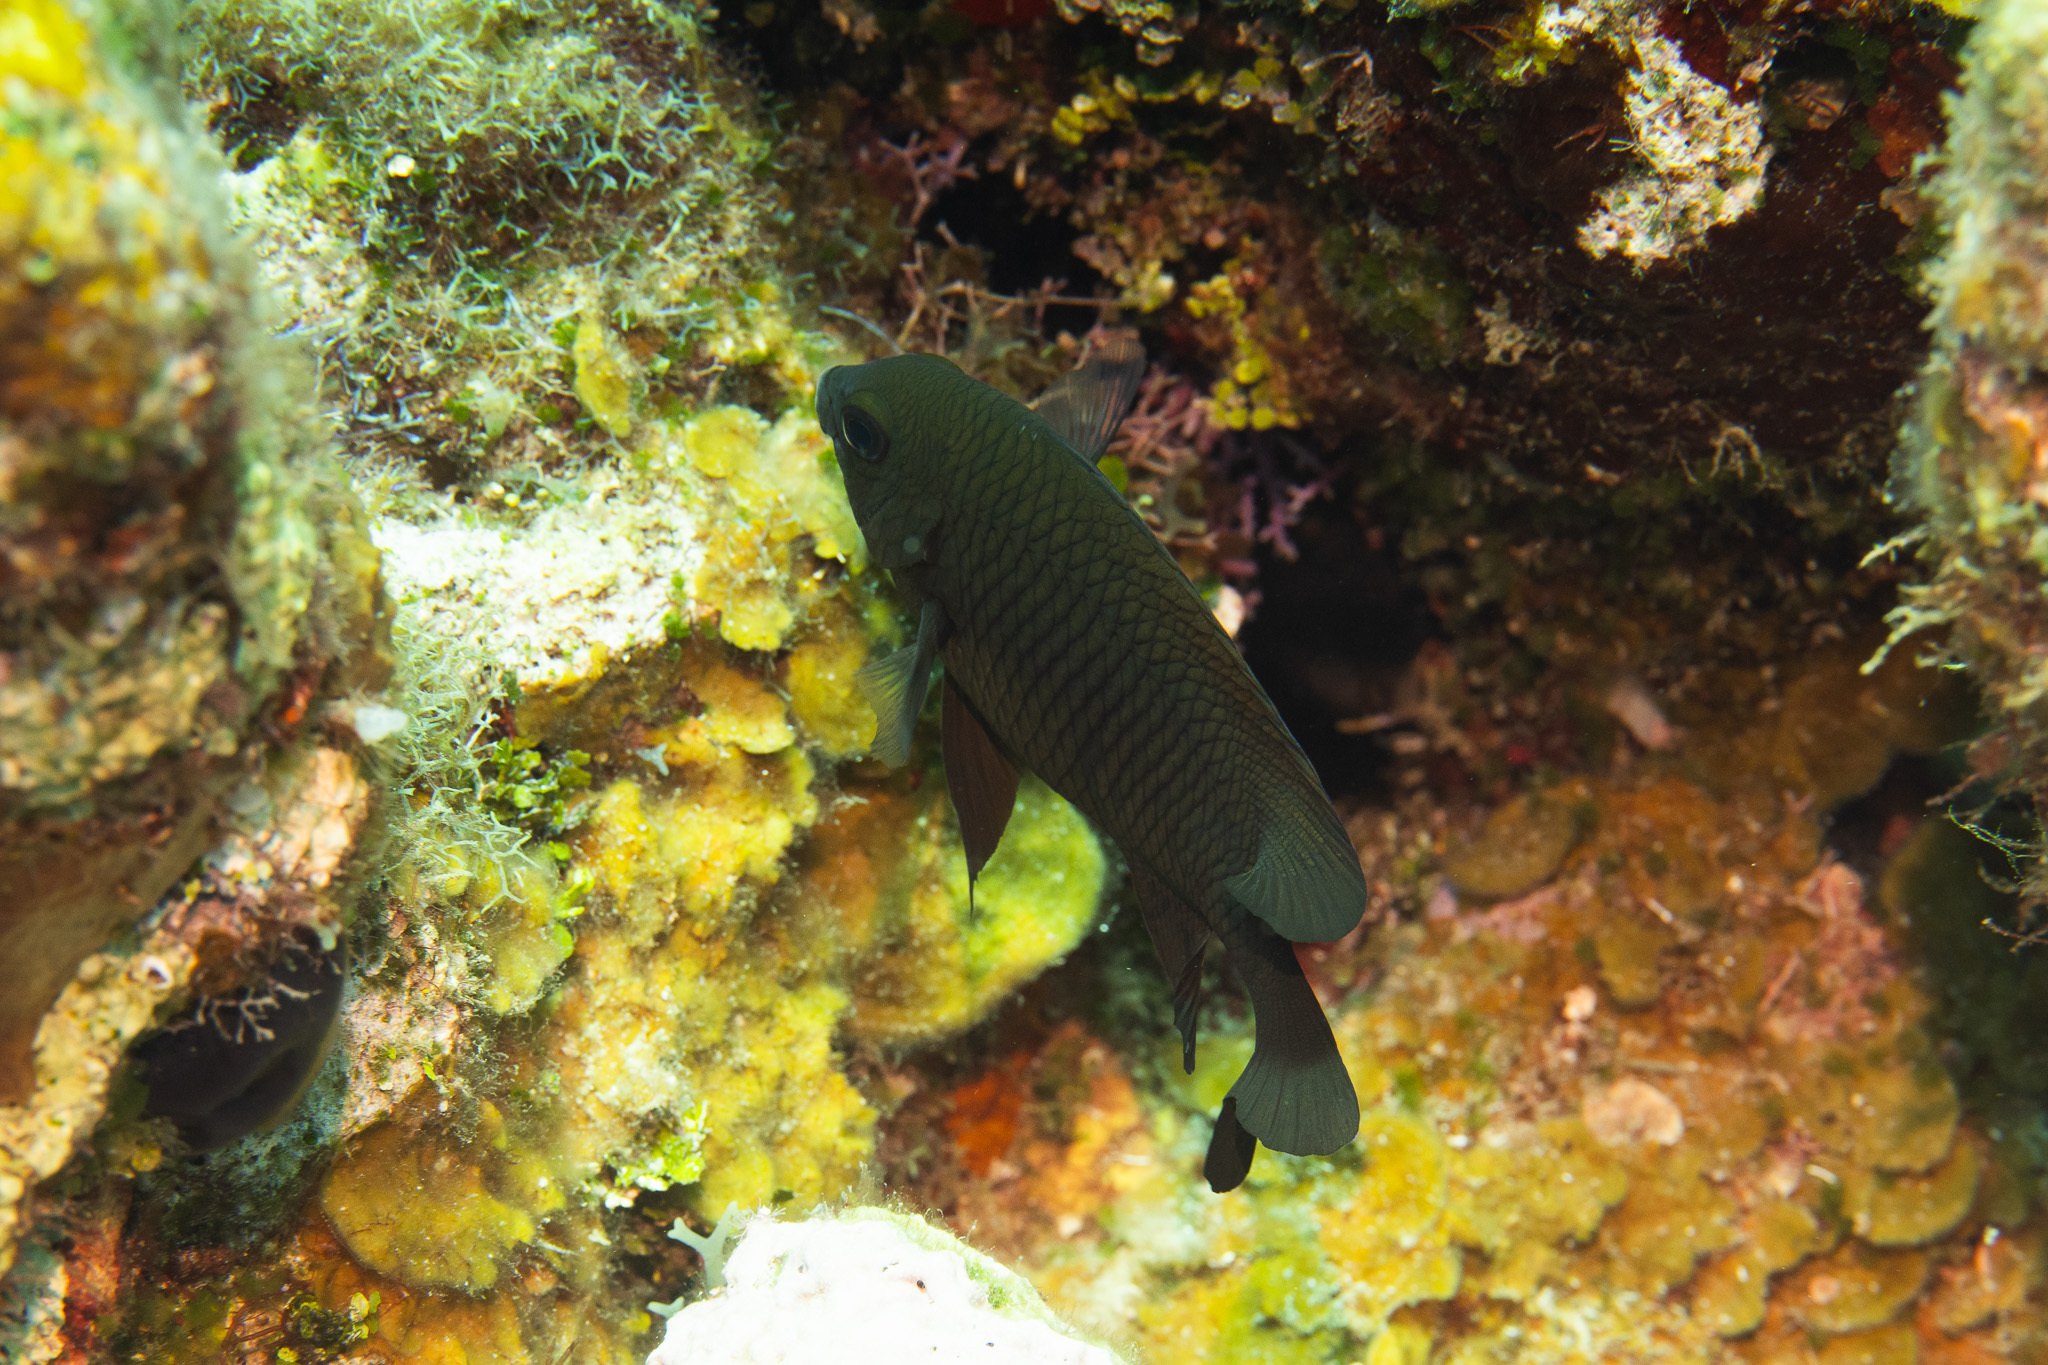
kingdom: Animalia
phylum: Chordata
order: Perciformes
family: Pomacentridae
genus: Stegastes
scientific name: Stegastes diencaeus
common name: Longfin damselfish
